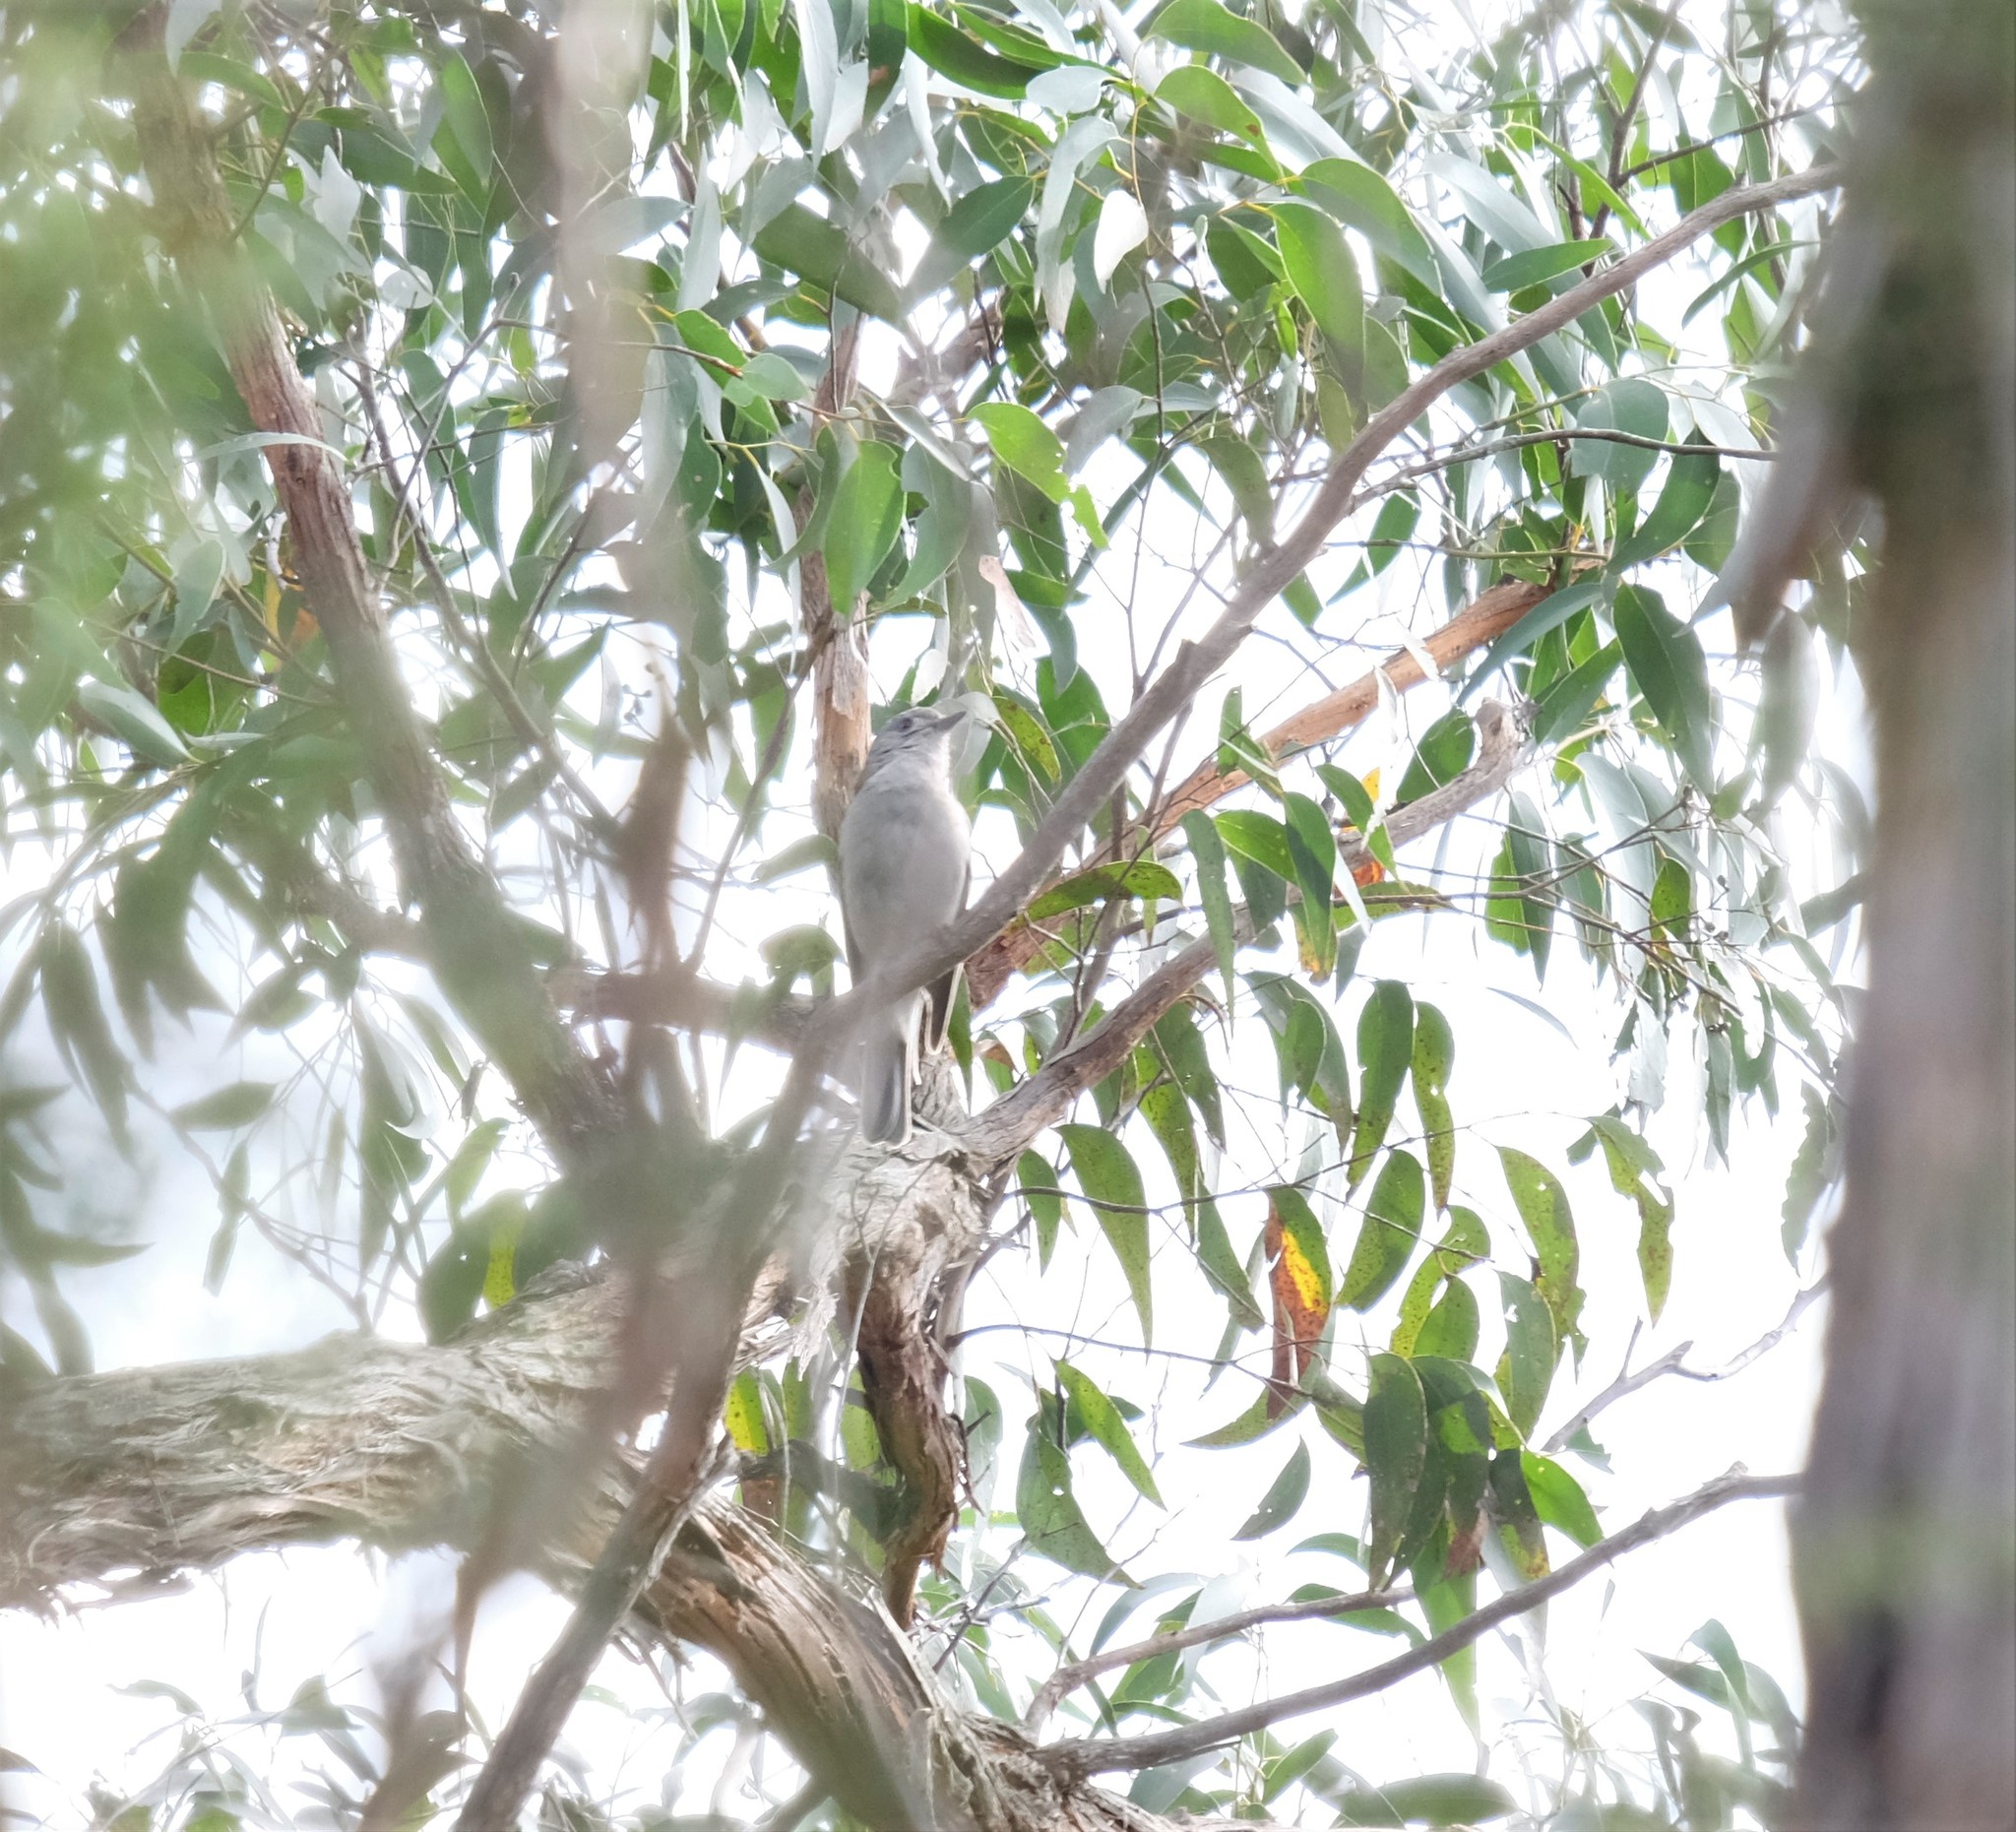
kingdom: Animalia
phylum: Chordata
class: Aves
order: Passeriformes
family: Pachycephalidae
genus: Colluricincla
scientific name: Colluricincla harmonica
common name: Grey shrikethrush
